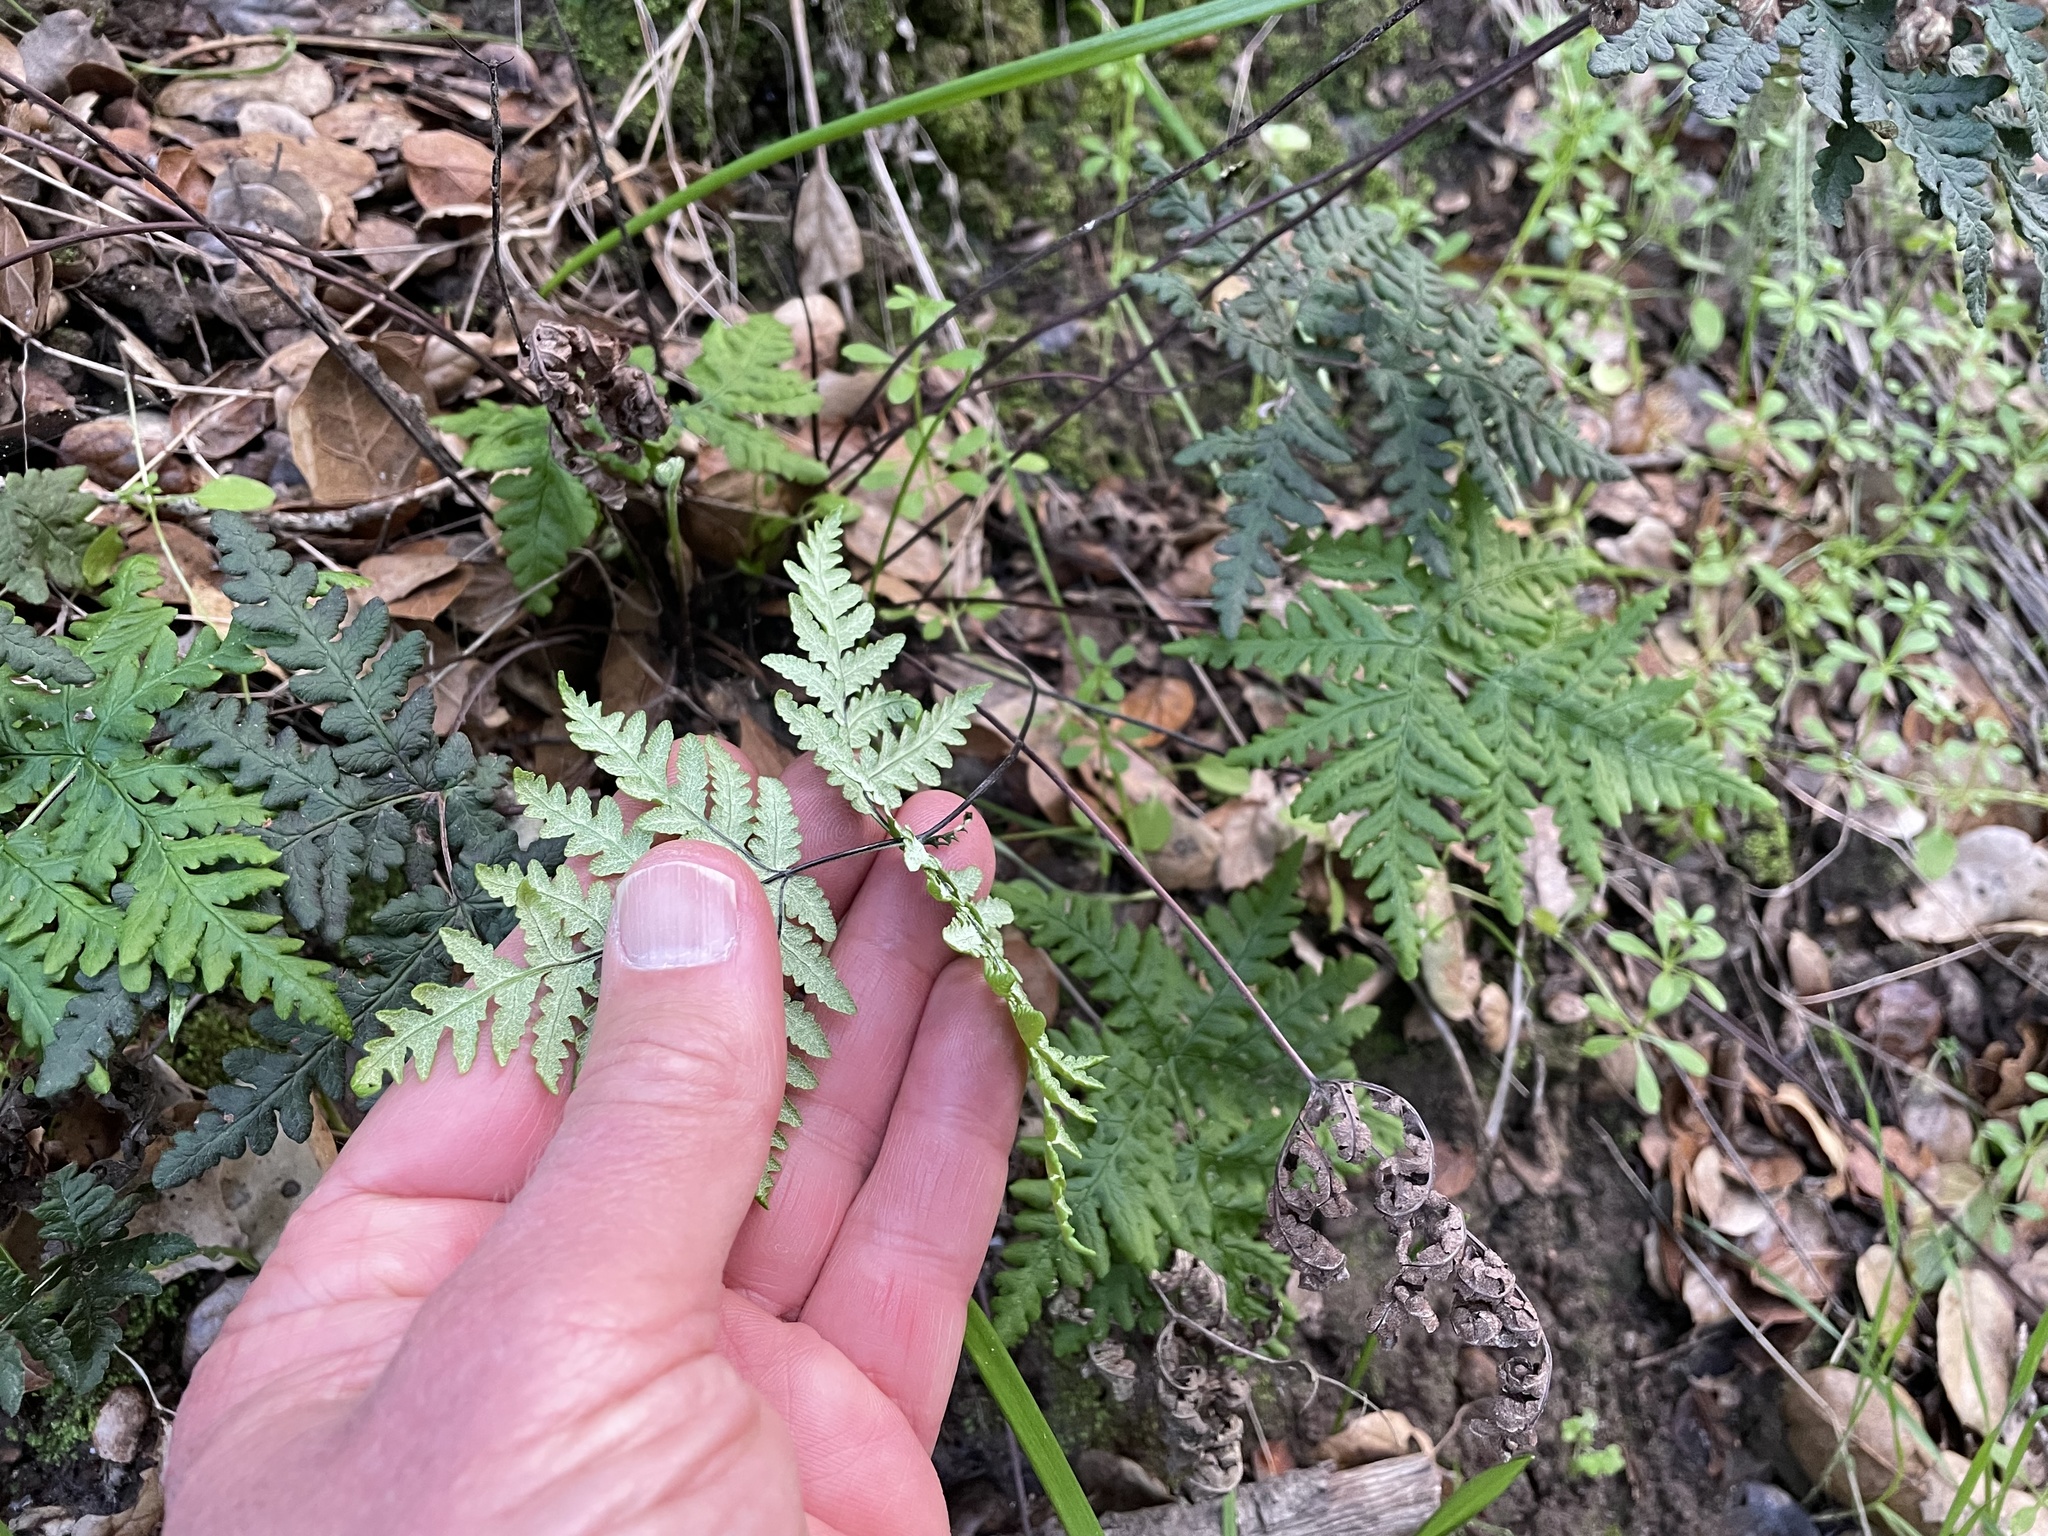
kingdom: Plantae
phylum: Tracheophyta
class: Polypodiopsida
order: Polypodiales
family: Pteridaceae
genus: Pentagramma
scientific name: Pentagramma triangularis
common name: Gold fern
